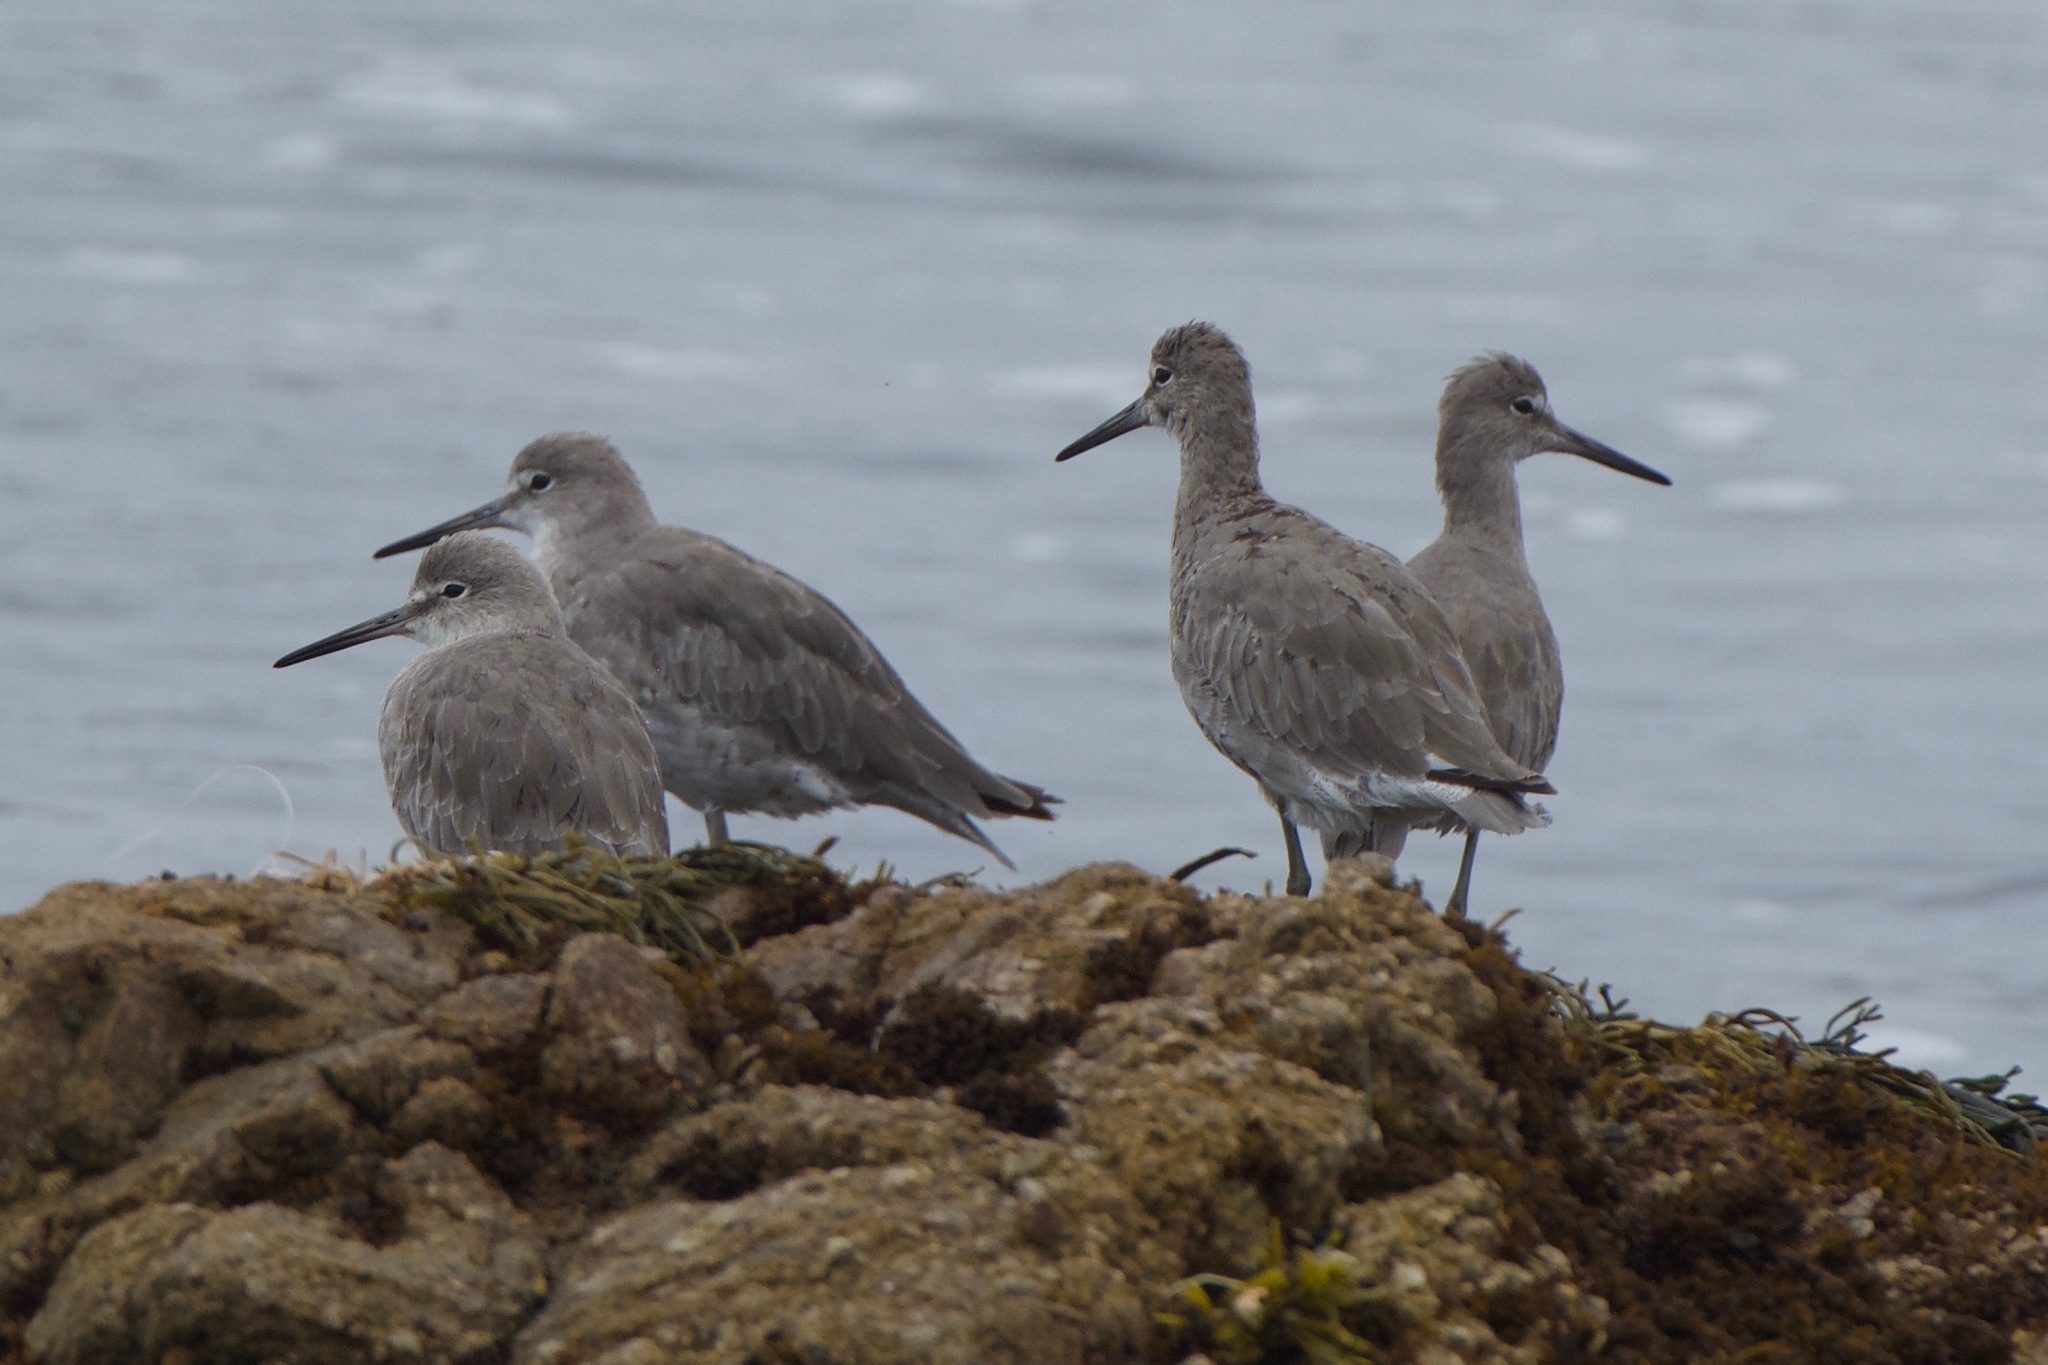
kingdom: Animalia
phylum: Chordata
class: Aves
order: Charadriiformes
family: Scolopacidae
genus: Tringa
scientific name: Tringa semipalmata
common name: Willet
